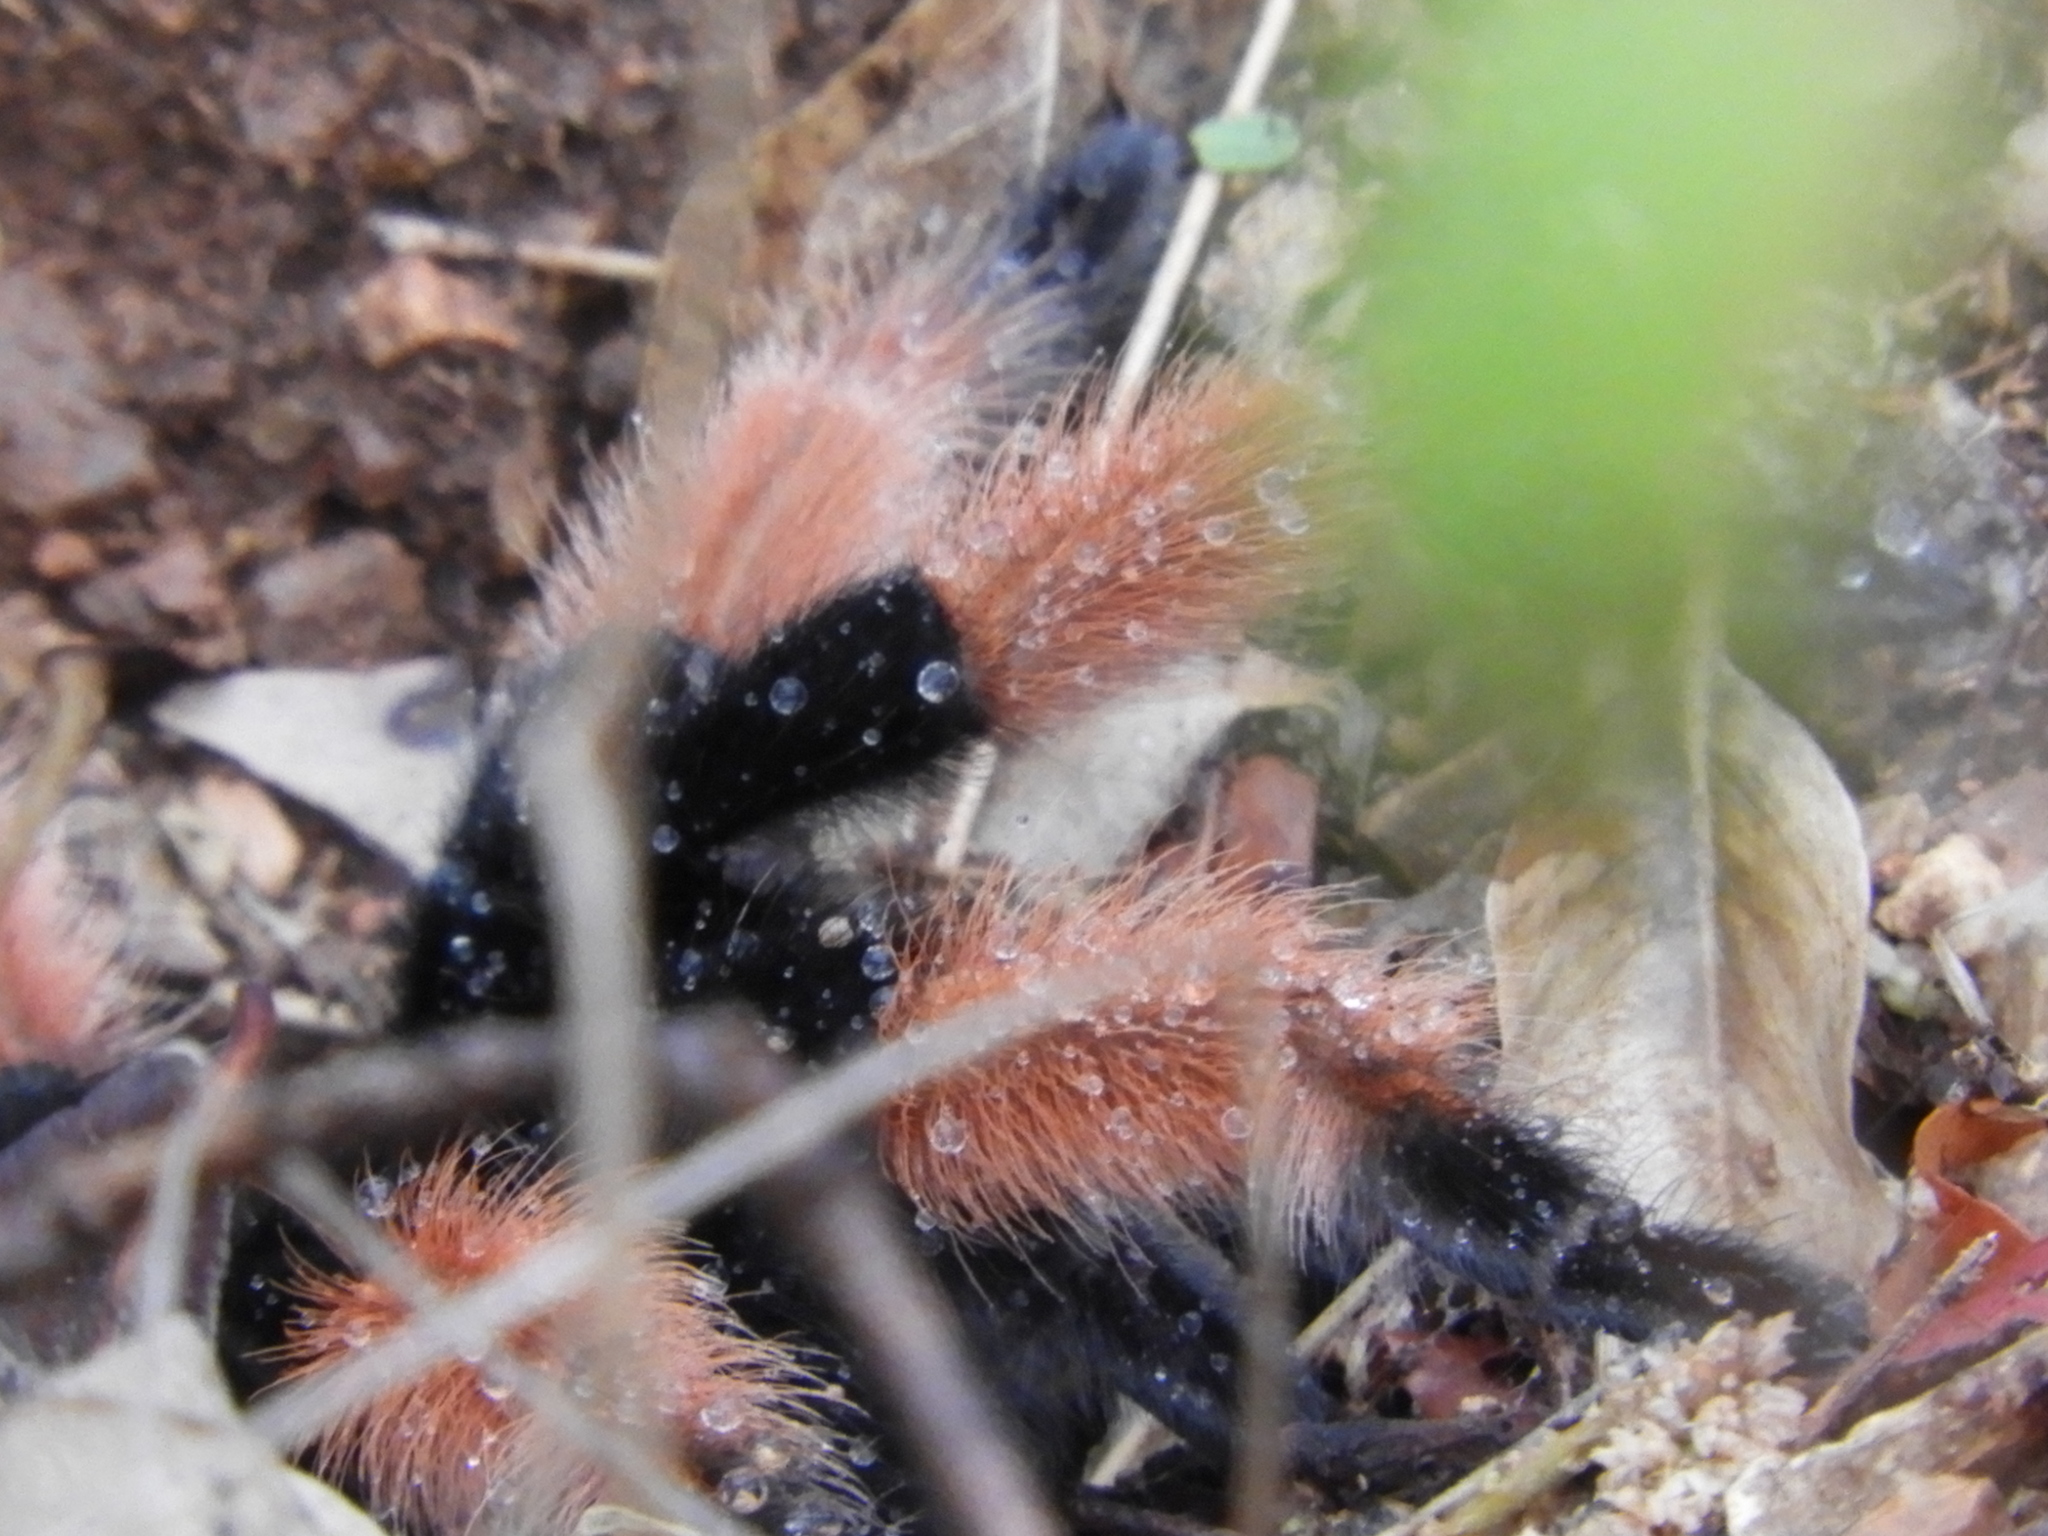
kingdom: Animalia
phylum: Arthropoda
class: Arachnida
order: Araneae
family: Theraphosidae
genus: Brachypelma
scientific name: Brachypelma emilia
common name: Mexican redleg
